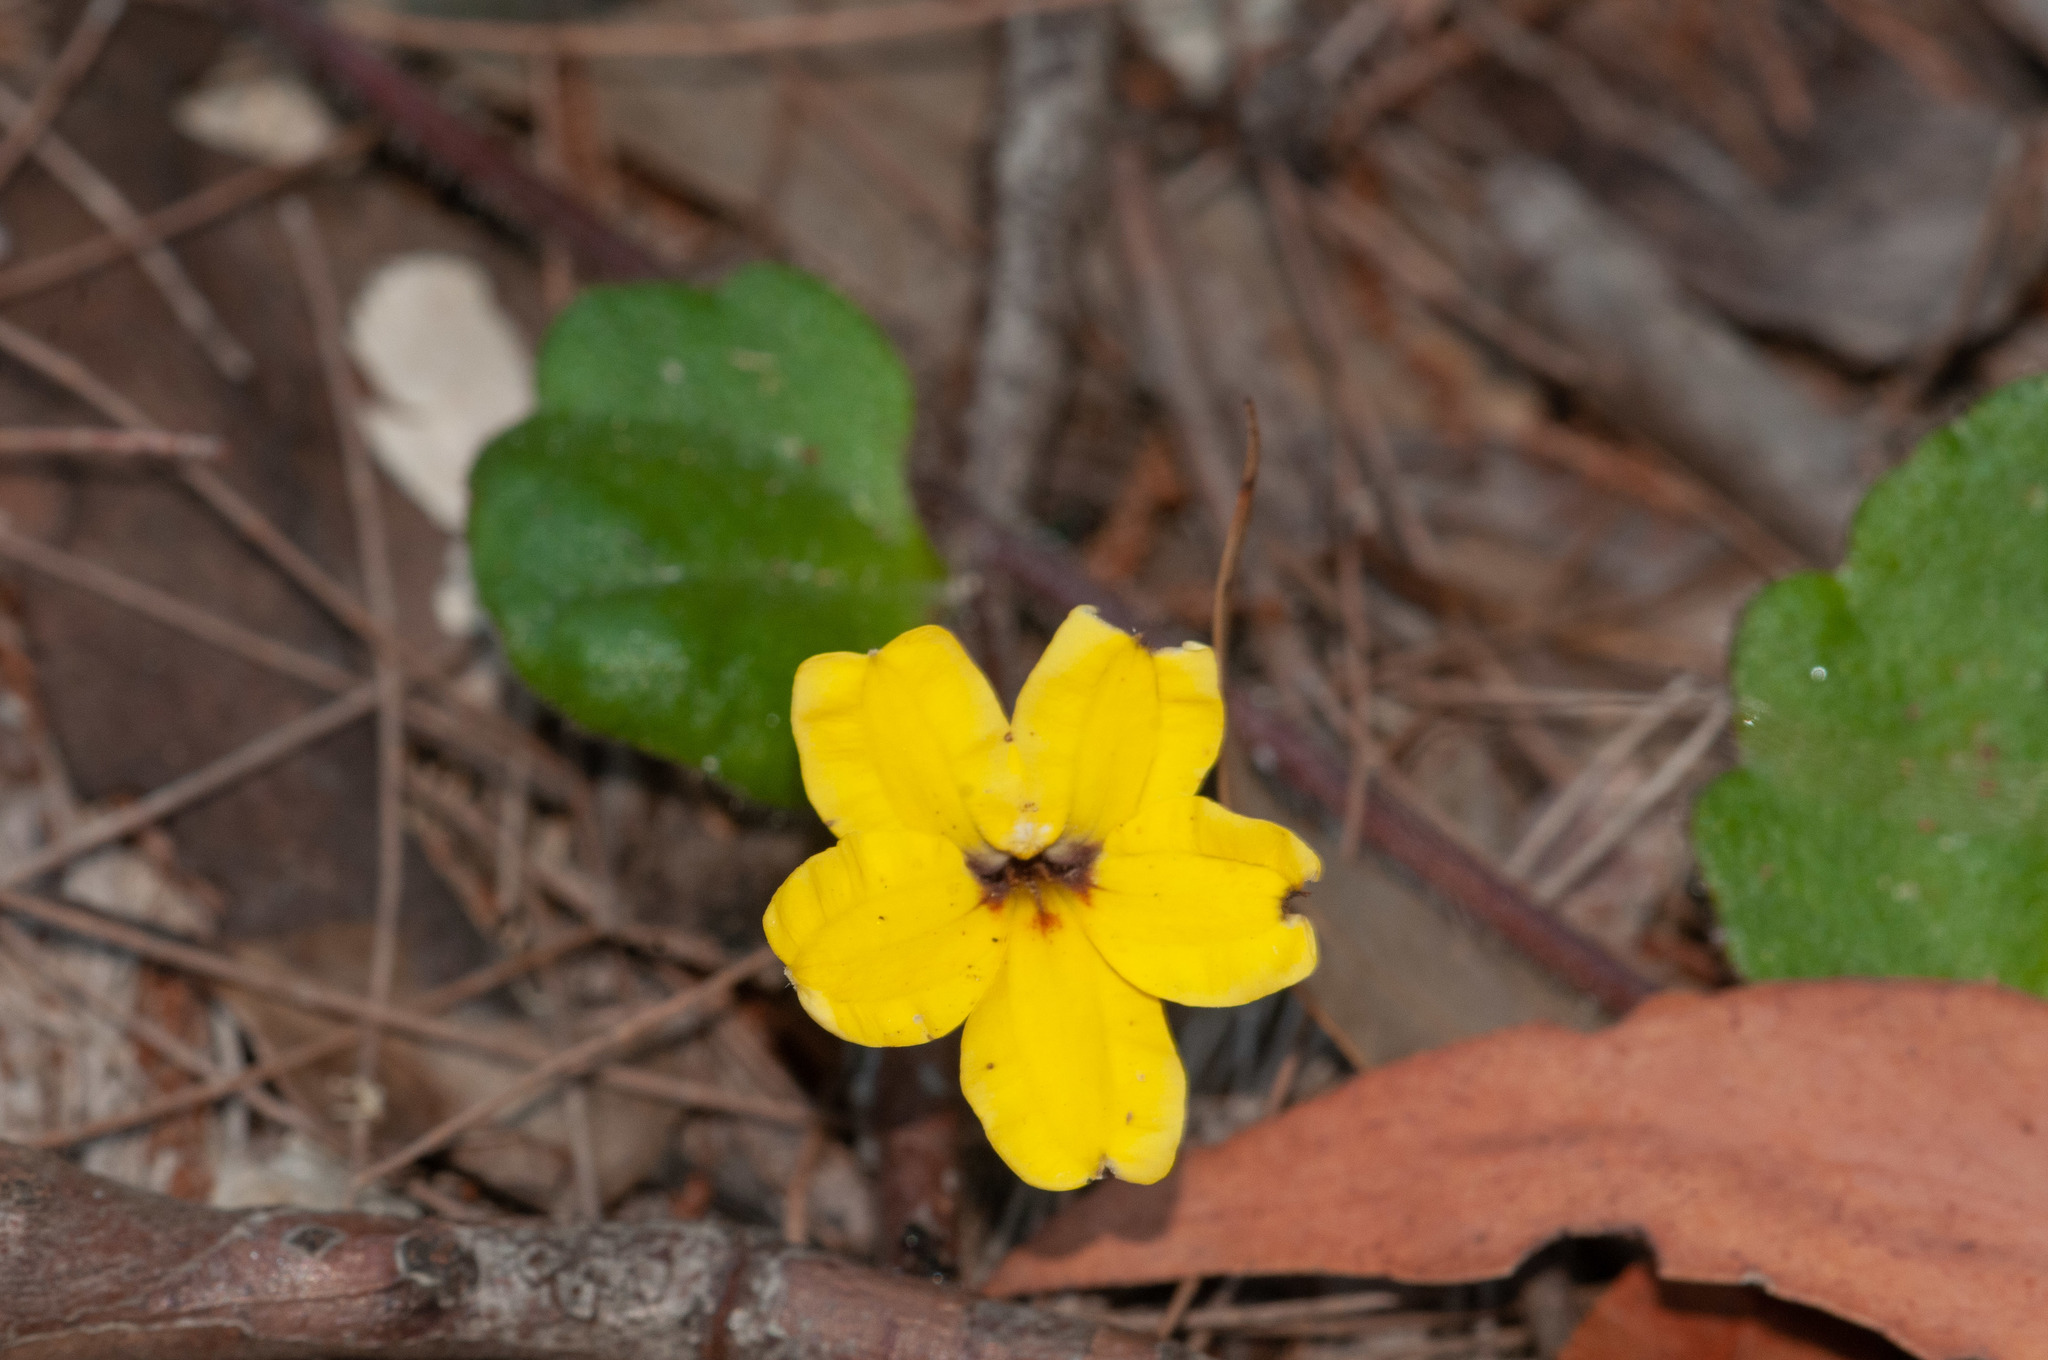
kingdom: Plantae
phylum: Tracheophyta
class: Magnoliopsida
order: Asterales
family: Goodeniaceae
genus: Goodenia
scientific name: Goodenia rotundifolia
